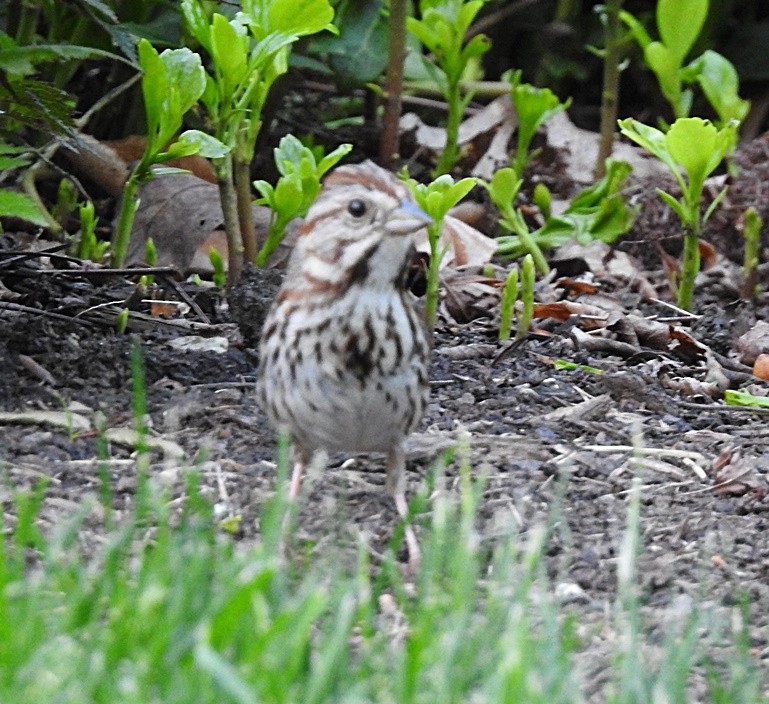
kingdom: Animalia
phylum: Chordata
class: Aves
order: Passeriformes
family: Passerellidae
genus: Melospiza
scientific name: Melospiza melodia
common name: Song sparrow
